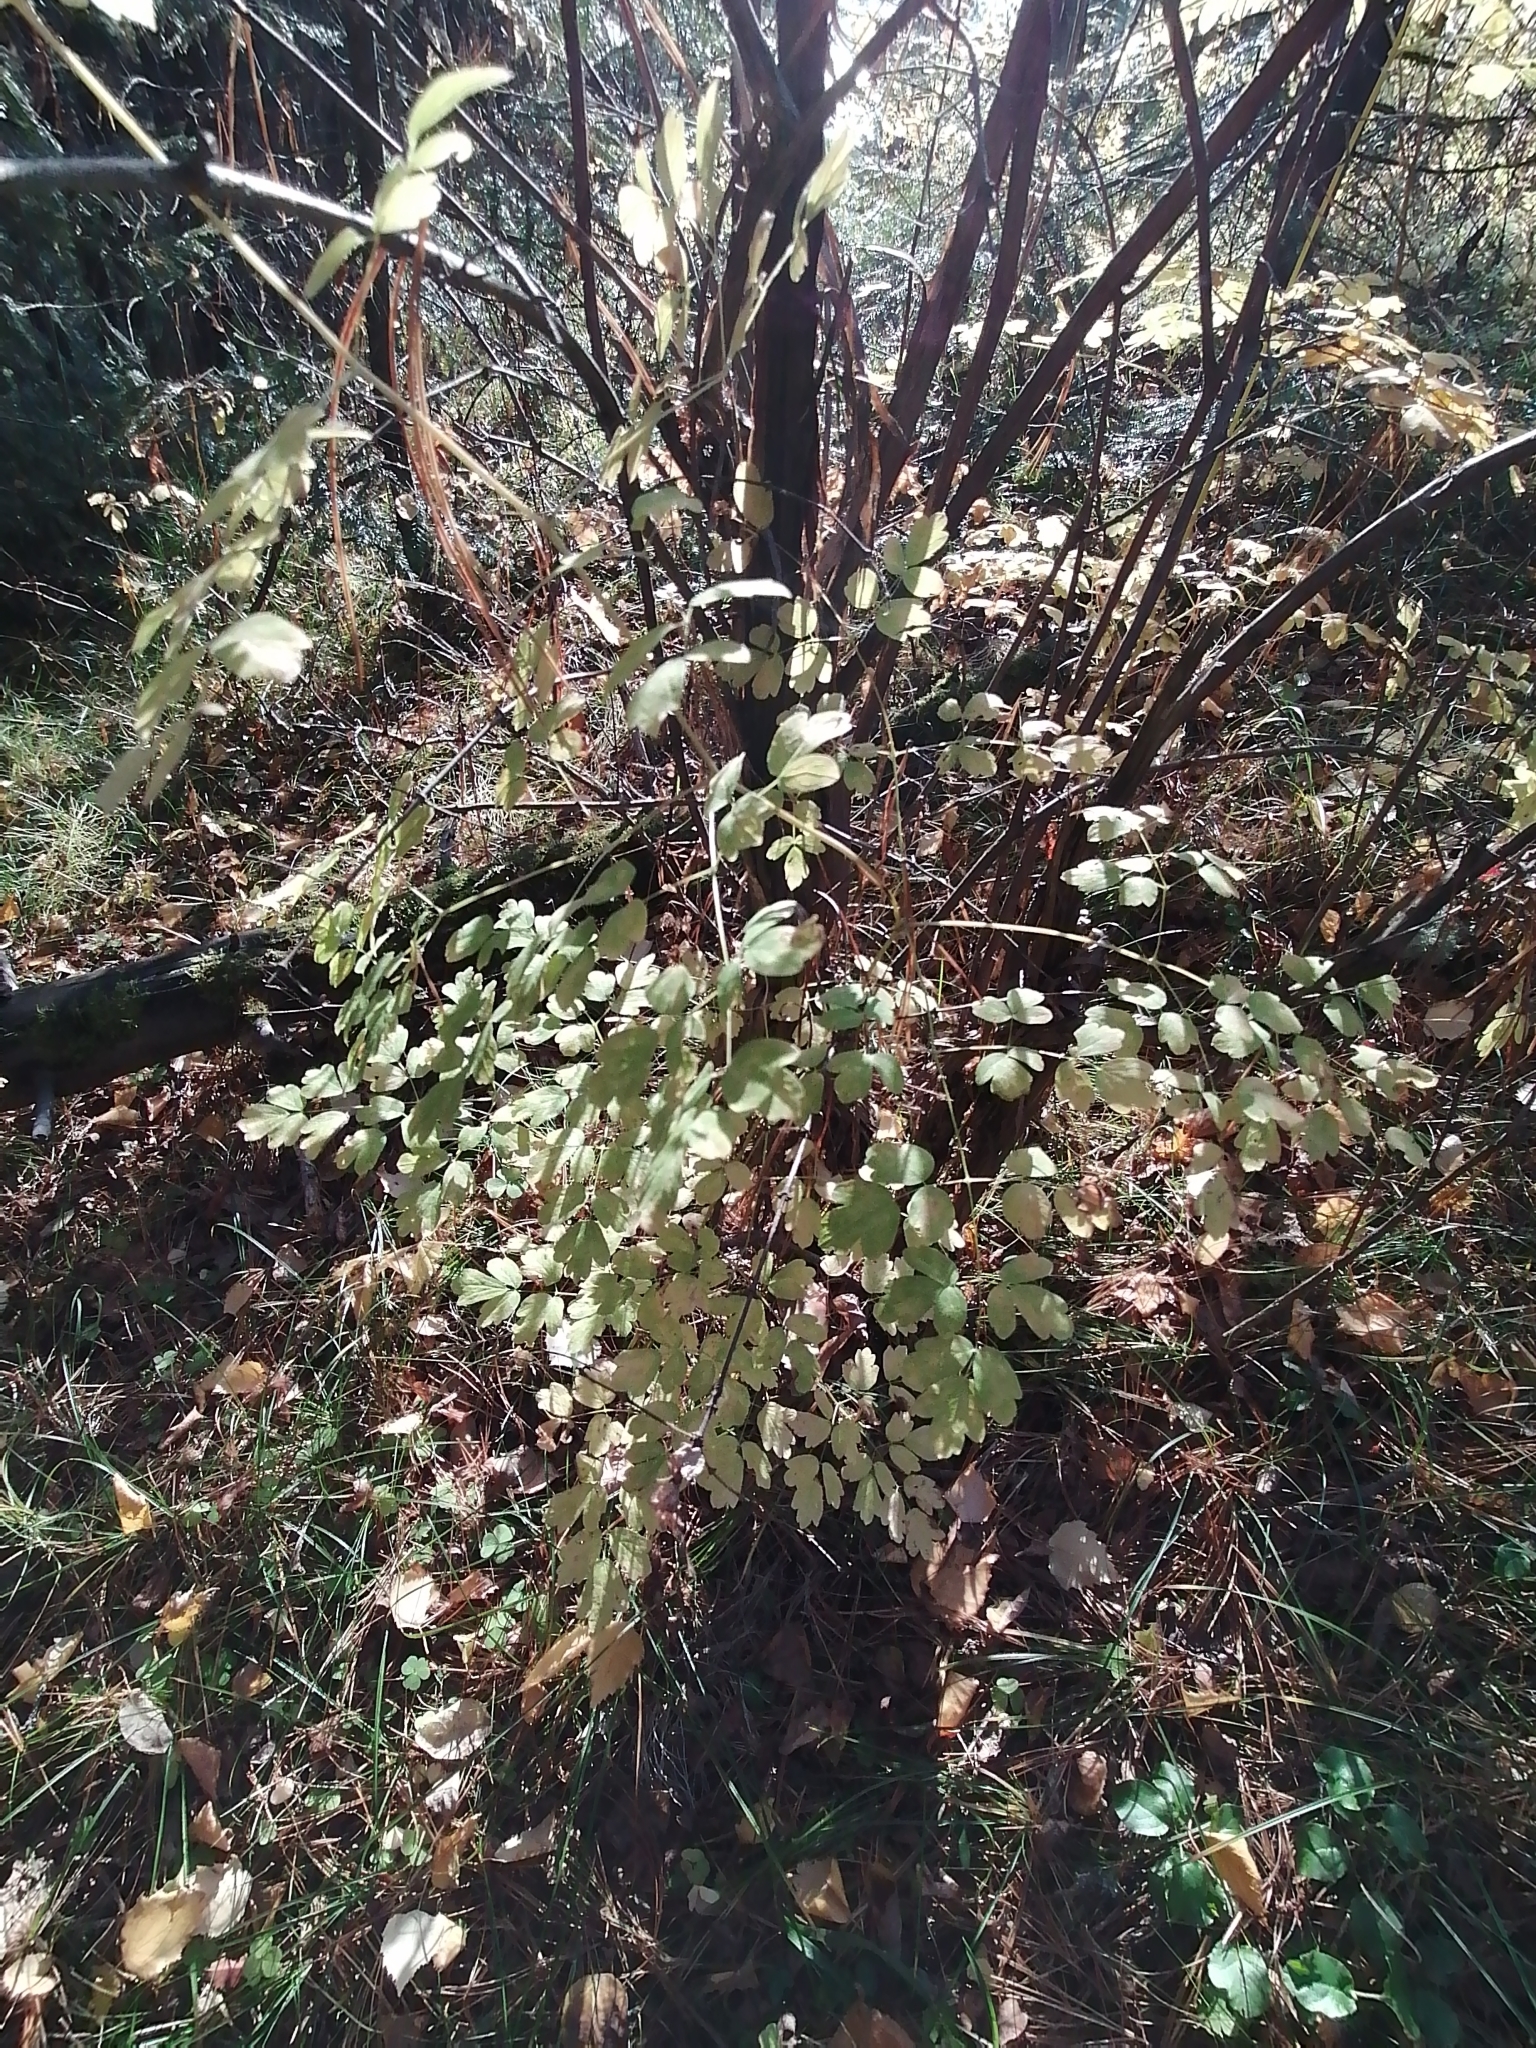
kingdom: Plantae
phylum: Tracheophyta
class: Magnoliopsida
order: Ranunculales
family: Ranunculaceae
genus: Thalictrum
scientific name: Thalictrum minus
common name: Lesser meadow-rue
